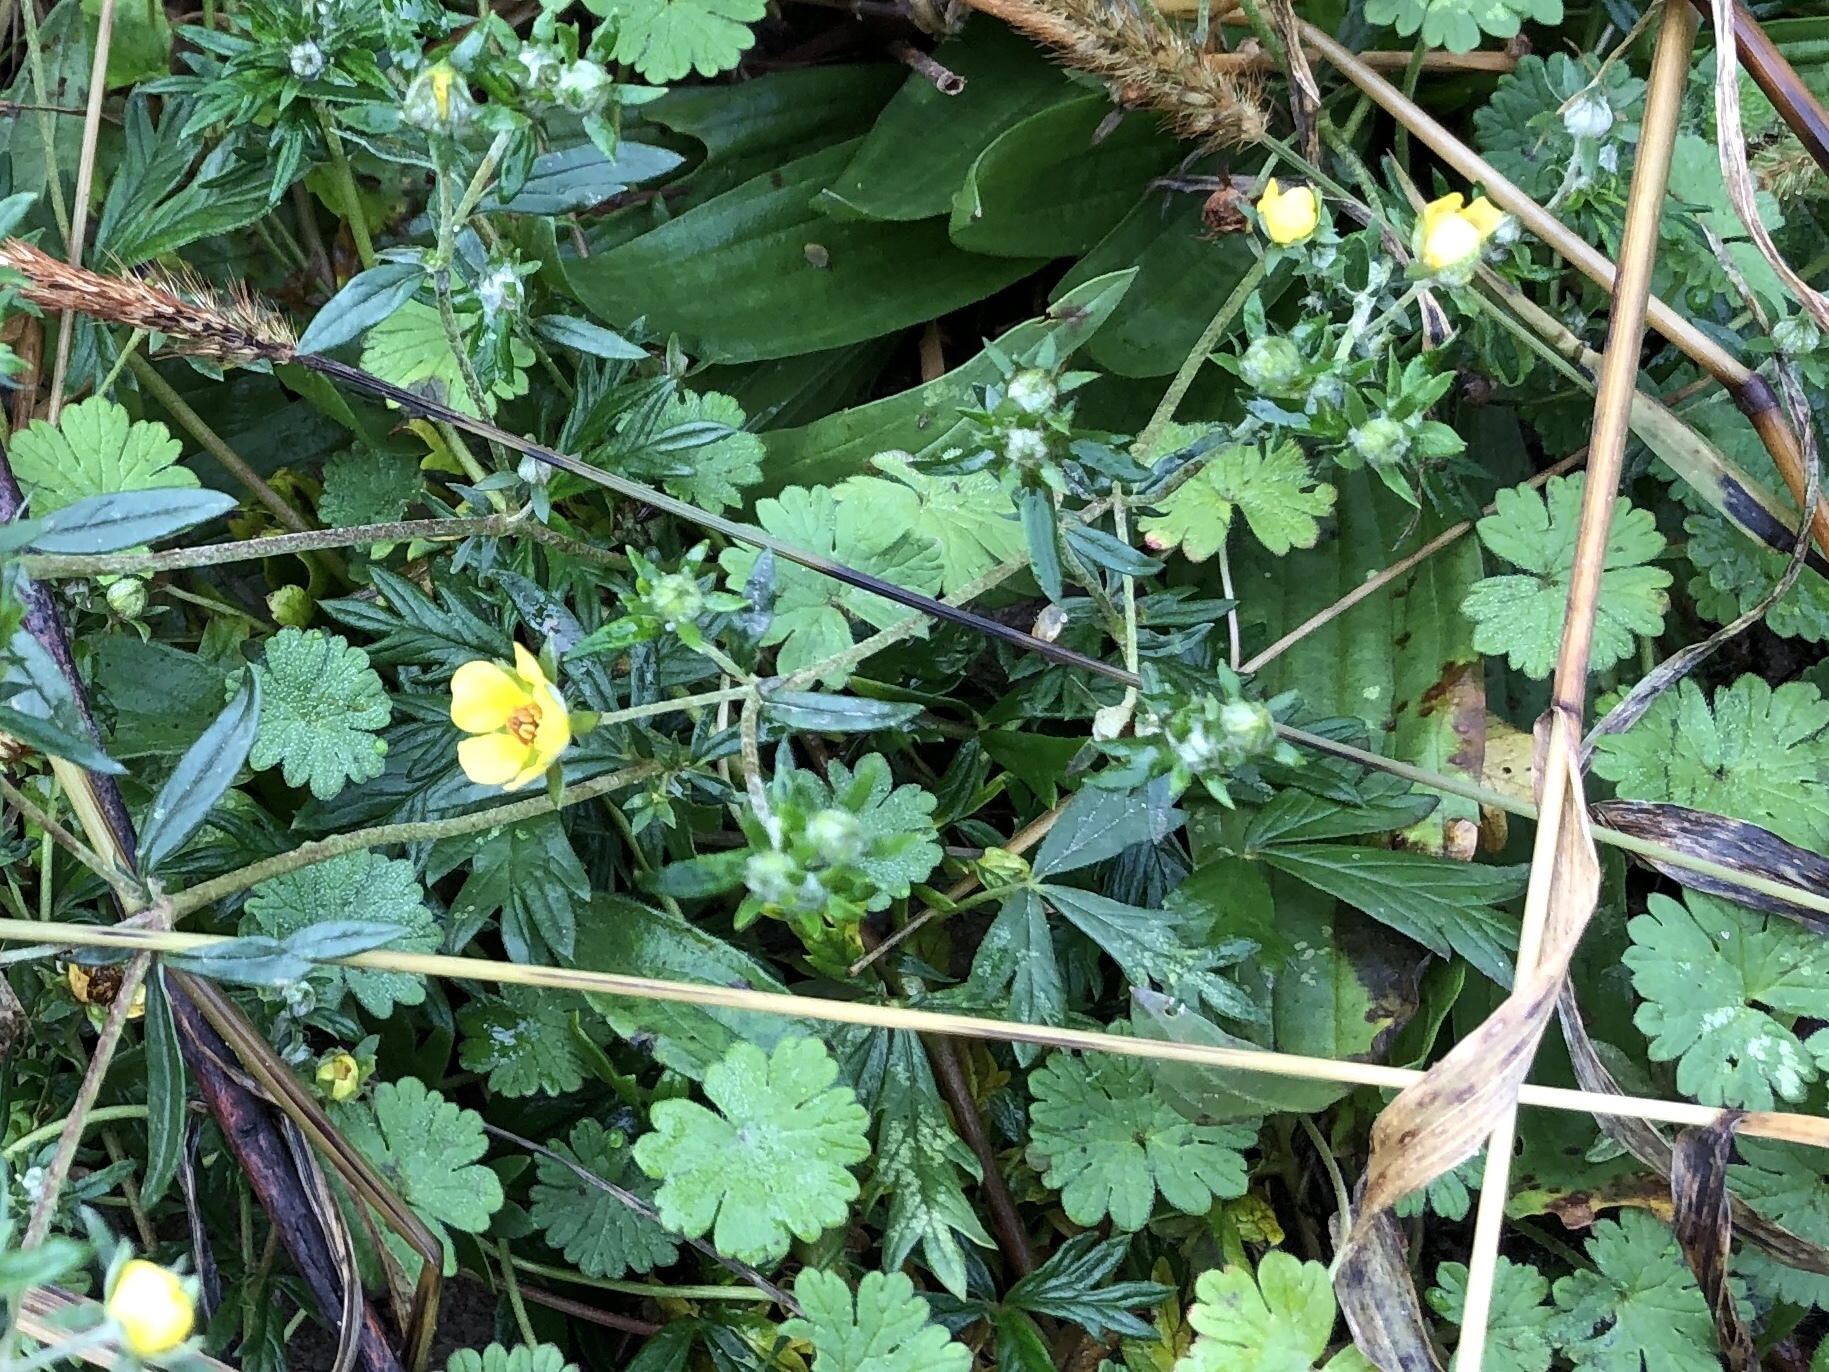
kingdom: Plantae
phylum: Tracheophyta
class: Magnoliopsida
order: Rosales
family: Rosaceae
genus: Potentilla
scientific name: Potentilla argentea
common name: Hoary cinquefoil
